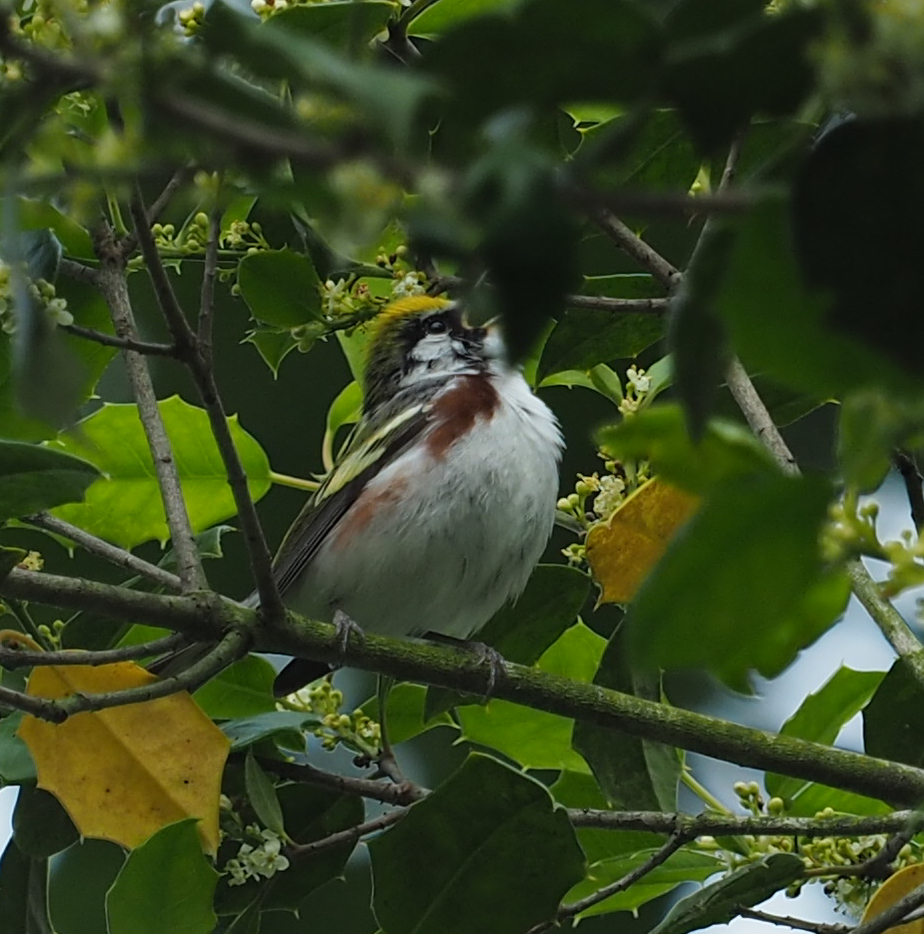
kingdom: Animalia
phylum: Chordata
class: Aves
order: Passeriformes
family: Parulidae
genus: Setophaga
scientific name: Setophaga pensylvanica
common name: Chestnut-sided warbler
